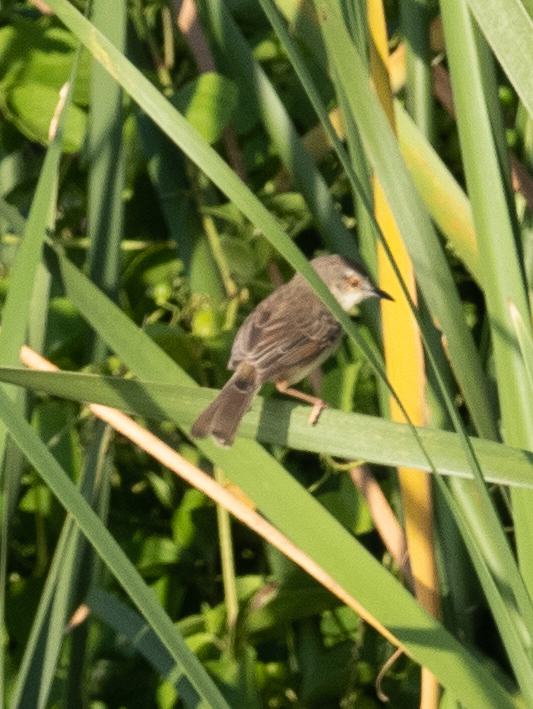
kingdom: Animalia
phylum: Chordata
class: Aves
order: Passeriformes
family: Cisticolidae
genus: Prinia
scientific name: Prinia inornata
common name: Plain prinia
